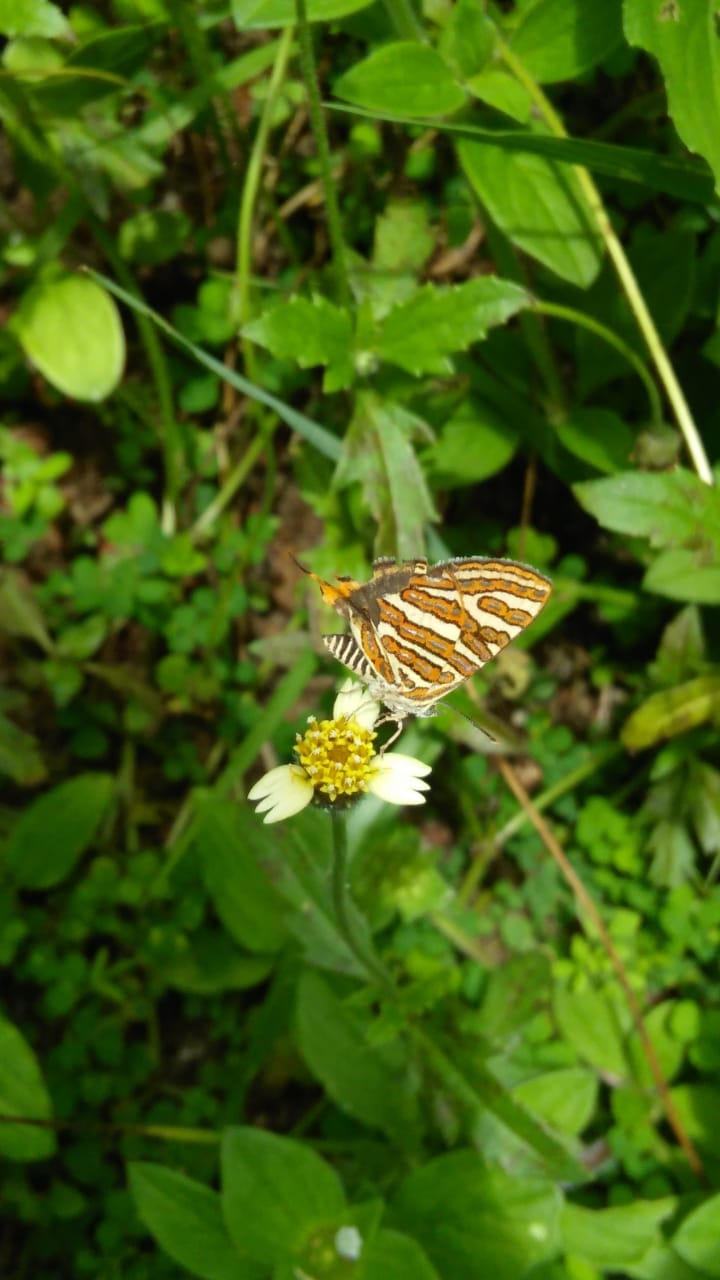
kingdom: Animalia
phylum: Arthropoda
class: Insecta
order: Lepidoptera
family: Lycaenidae
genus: Cigaritis
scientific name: Cigaritis vulcanus
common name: Common silverline
